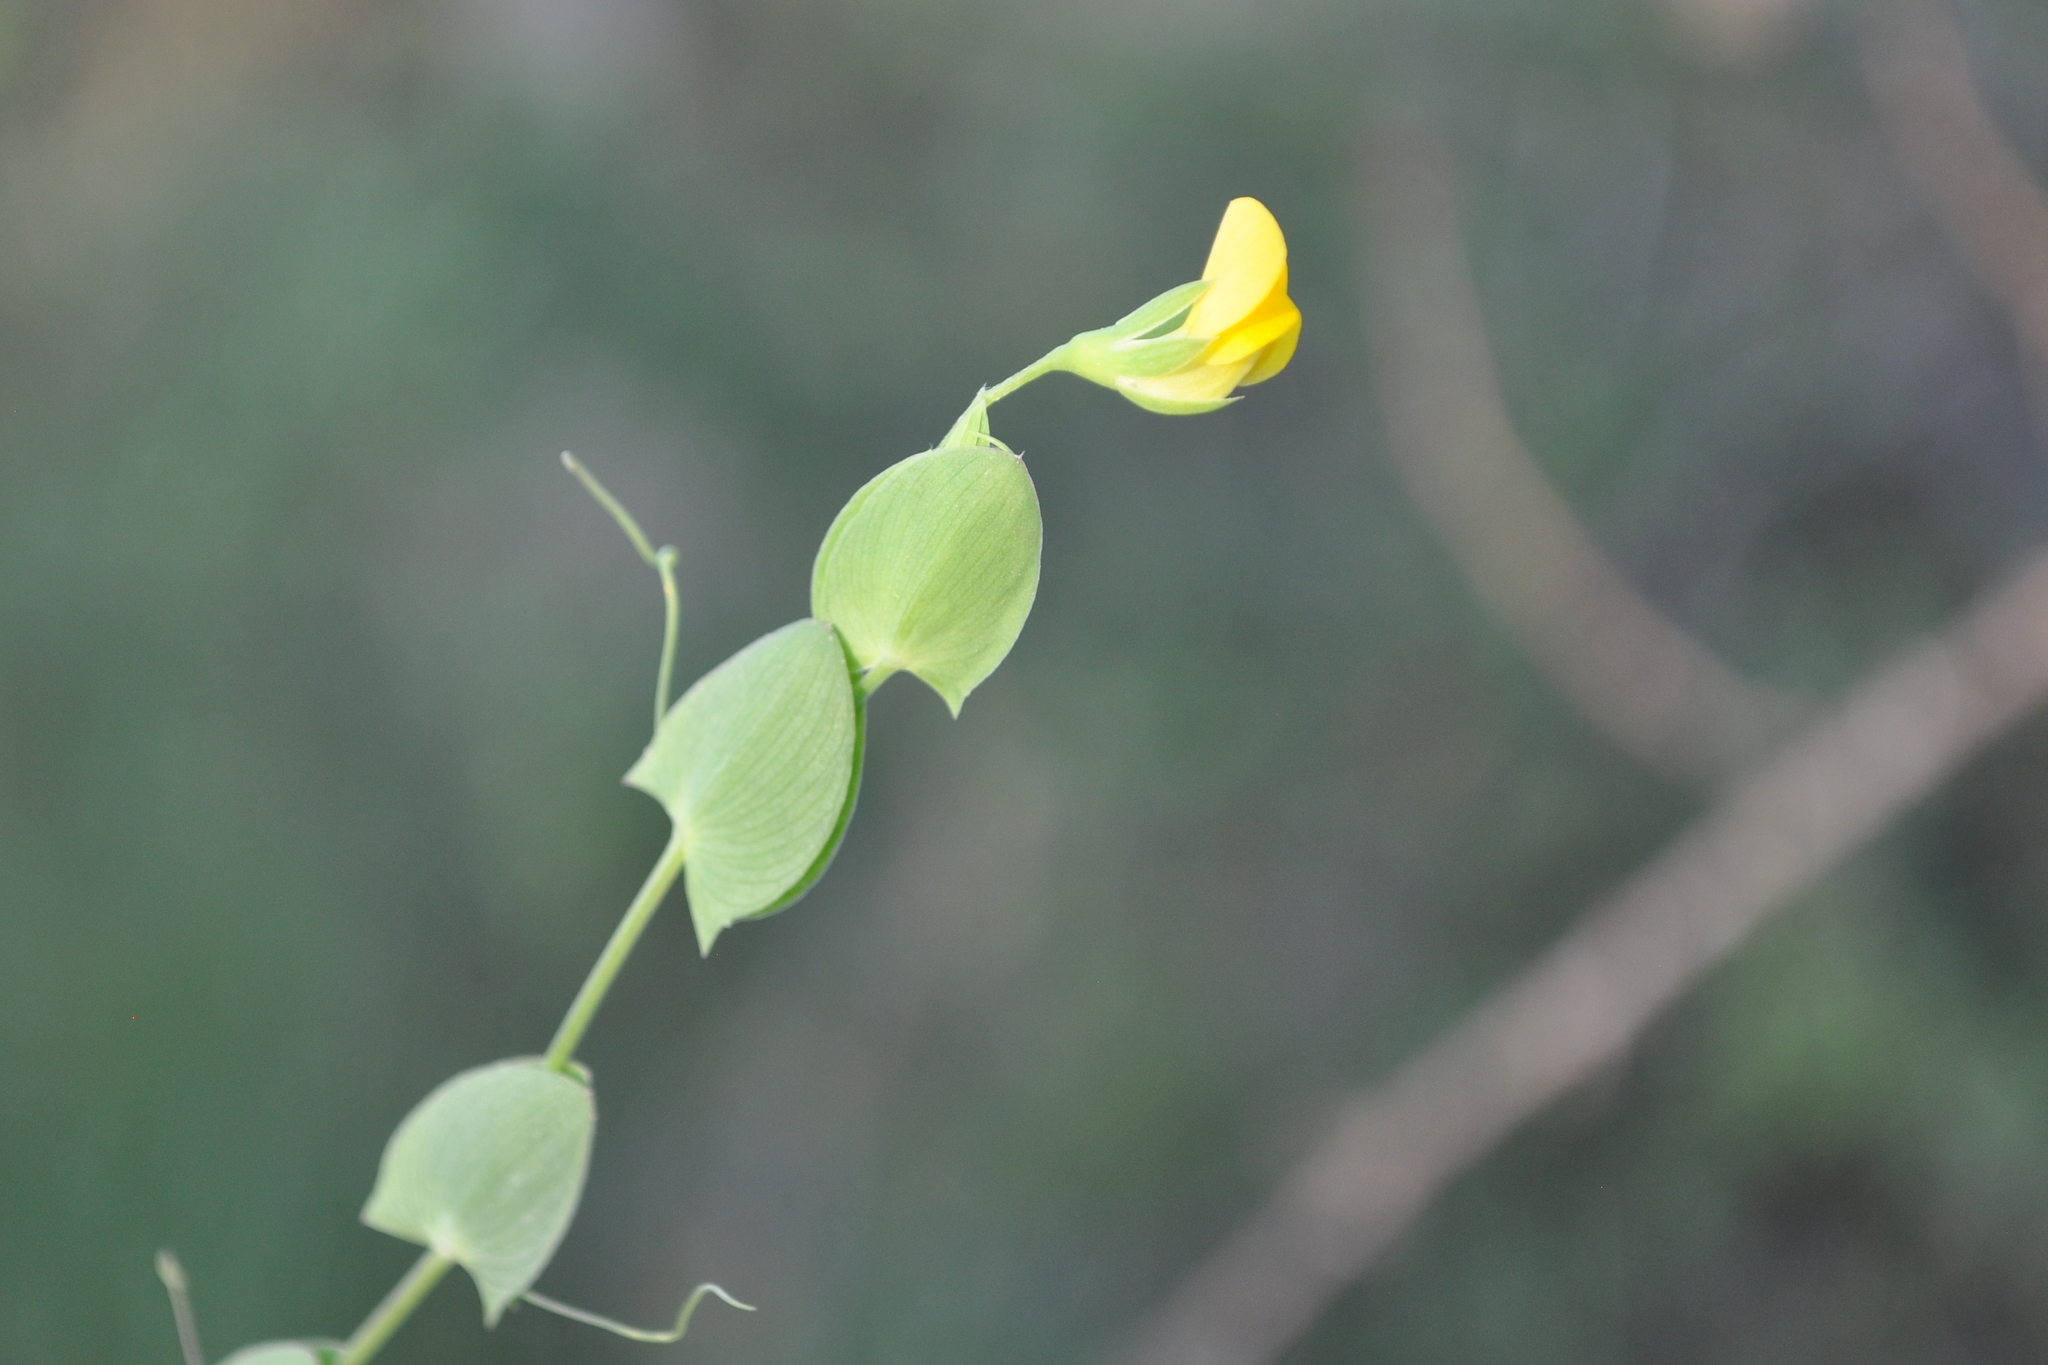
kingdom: Plantae
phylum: Tracheophyta
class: Magnoliopsida
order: Fabales
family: Fabaceae
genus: Lathyrus
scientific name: Lathyrus aphaca
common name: Yellow vetchling
